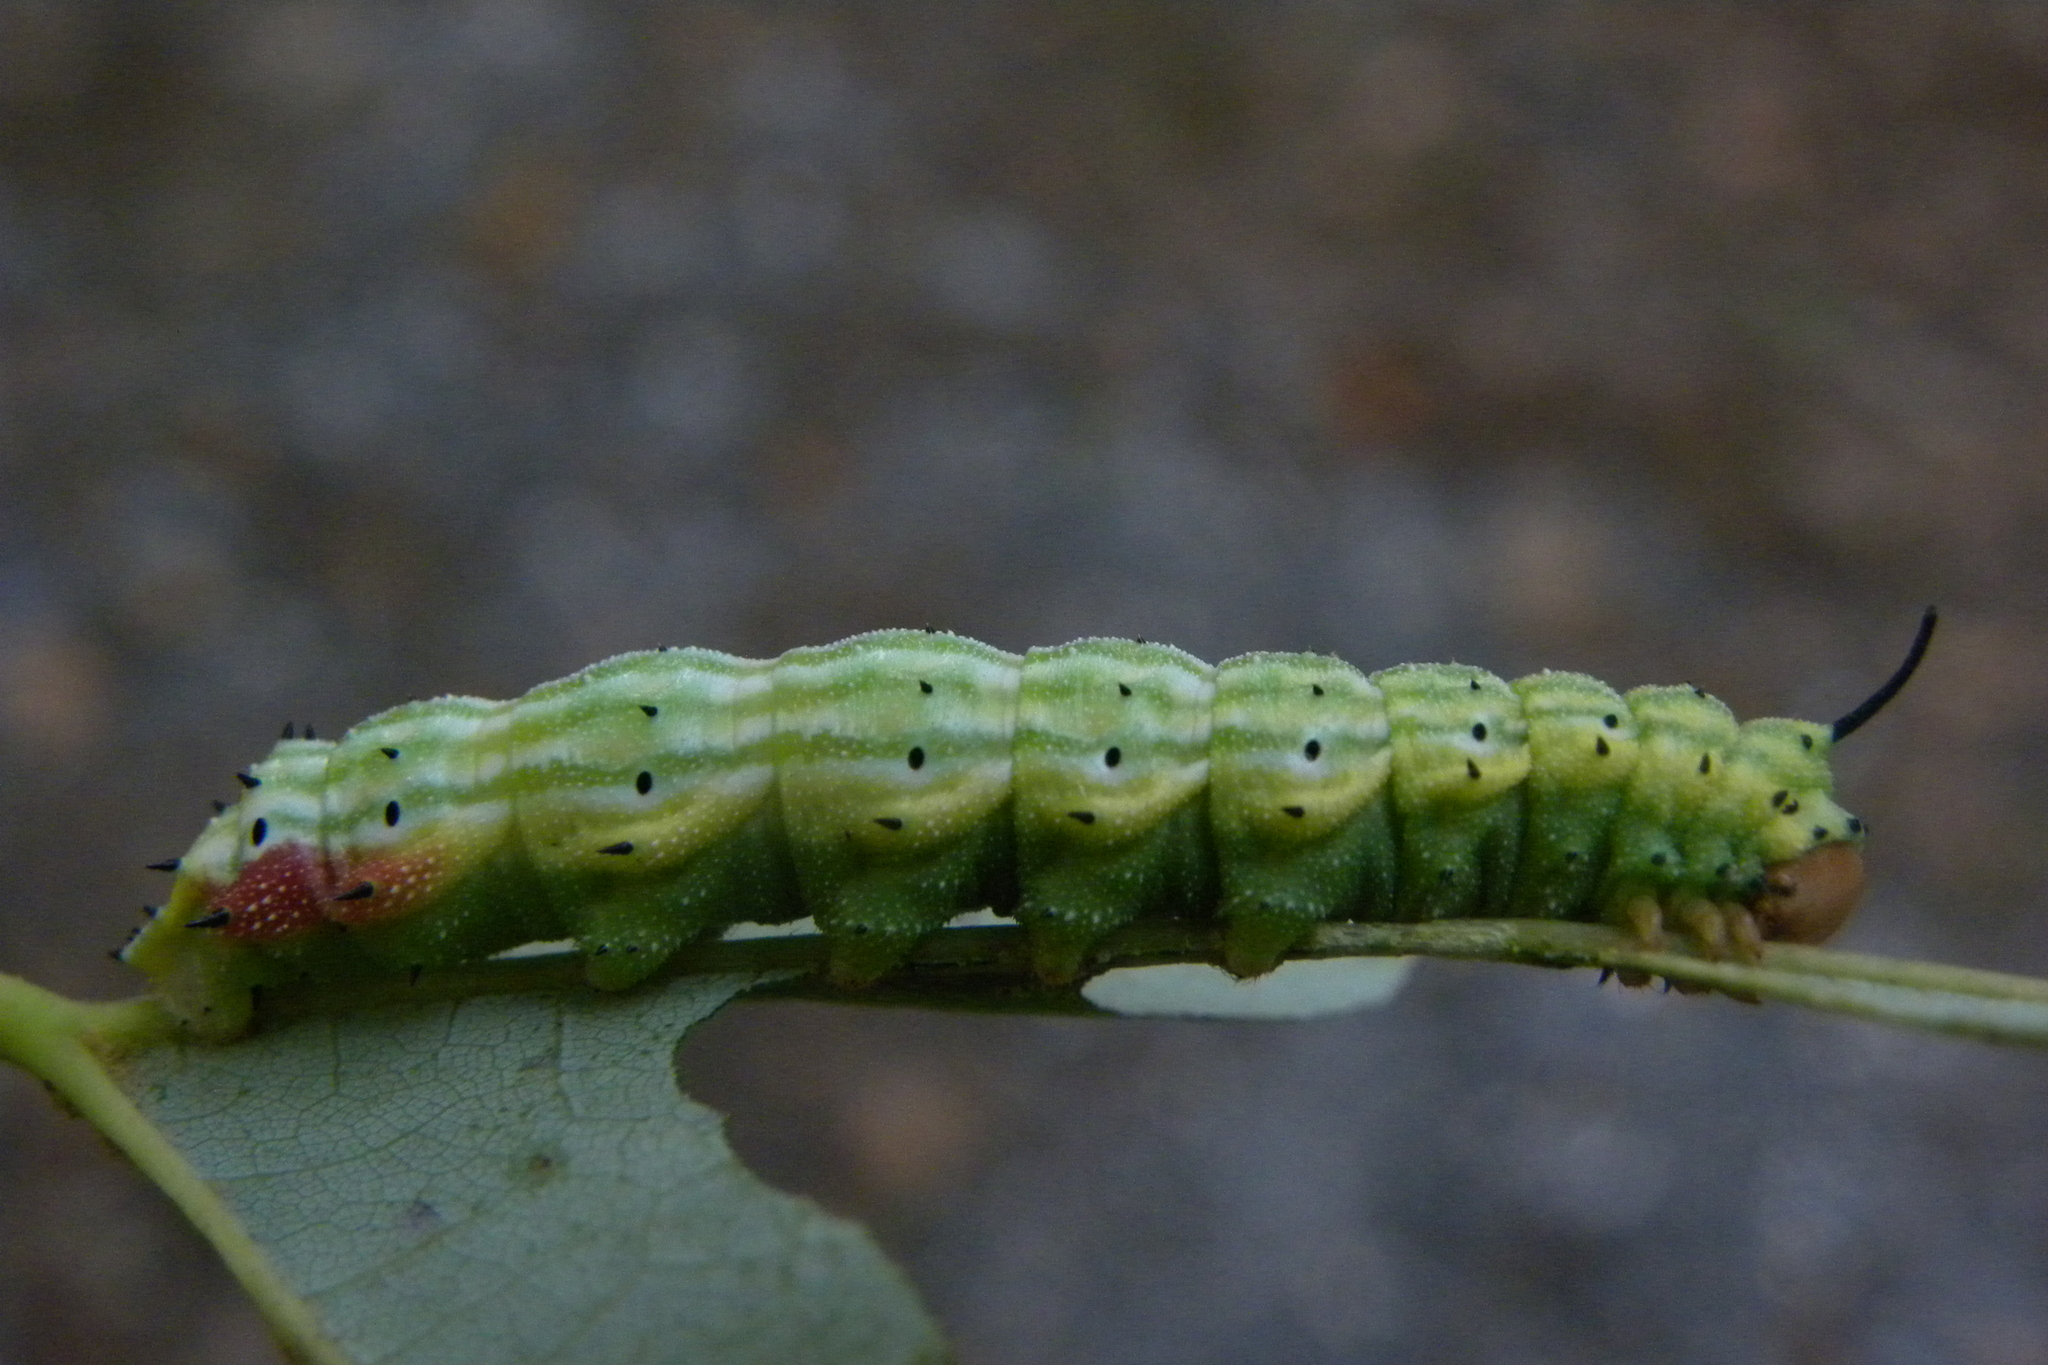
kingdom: Animalia
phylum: Arthropoda
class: Insecta
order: Lepidoptera
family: Saturniidae
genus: Dryocampa
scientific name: Dryocampa rubicunda
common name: Rosy maple moth
